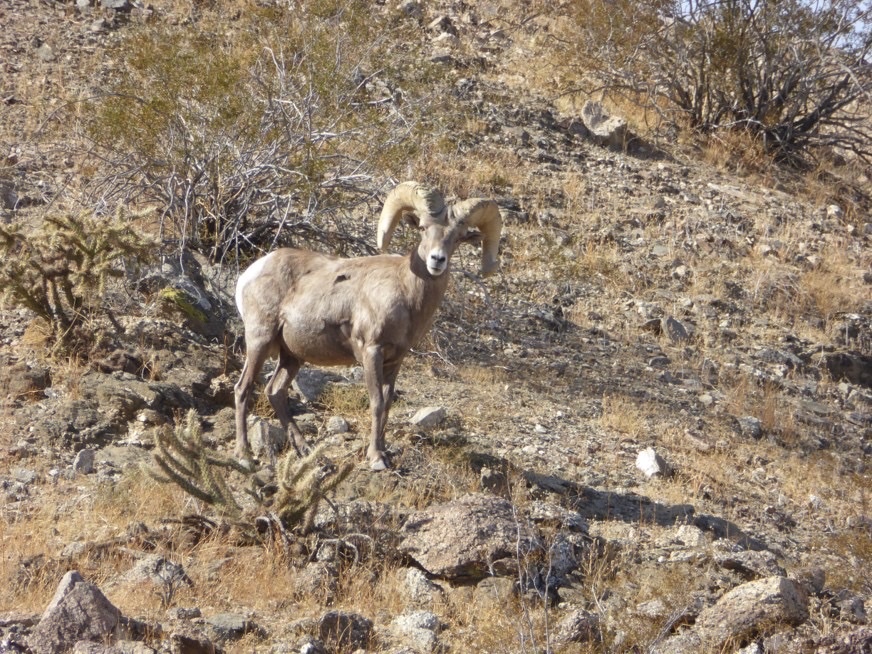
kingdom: Animalia
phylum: Chordata
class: Mammalia
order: Artiodactyla
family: Bovidae
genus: Ovis
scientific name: Ovis canadensis
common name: Bighorn sheep
